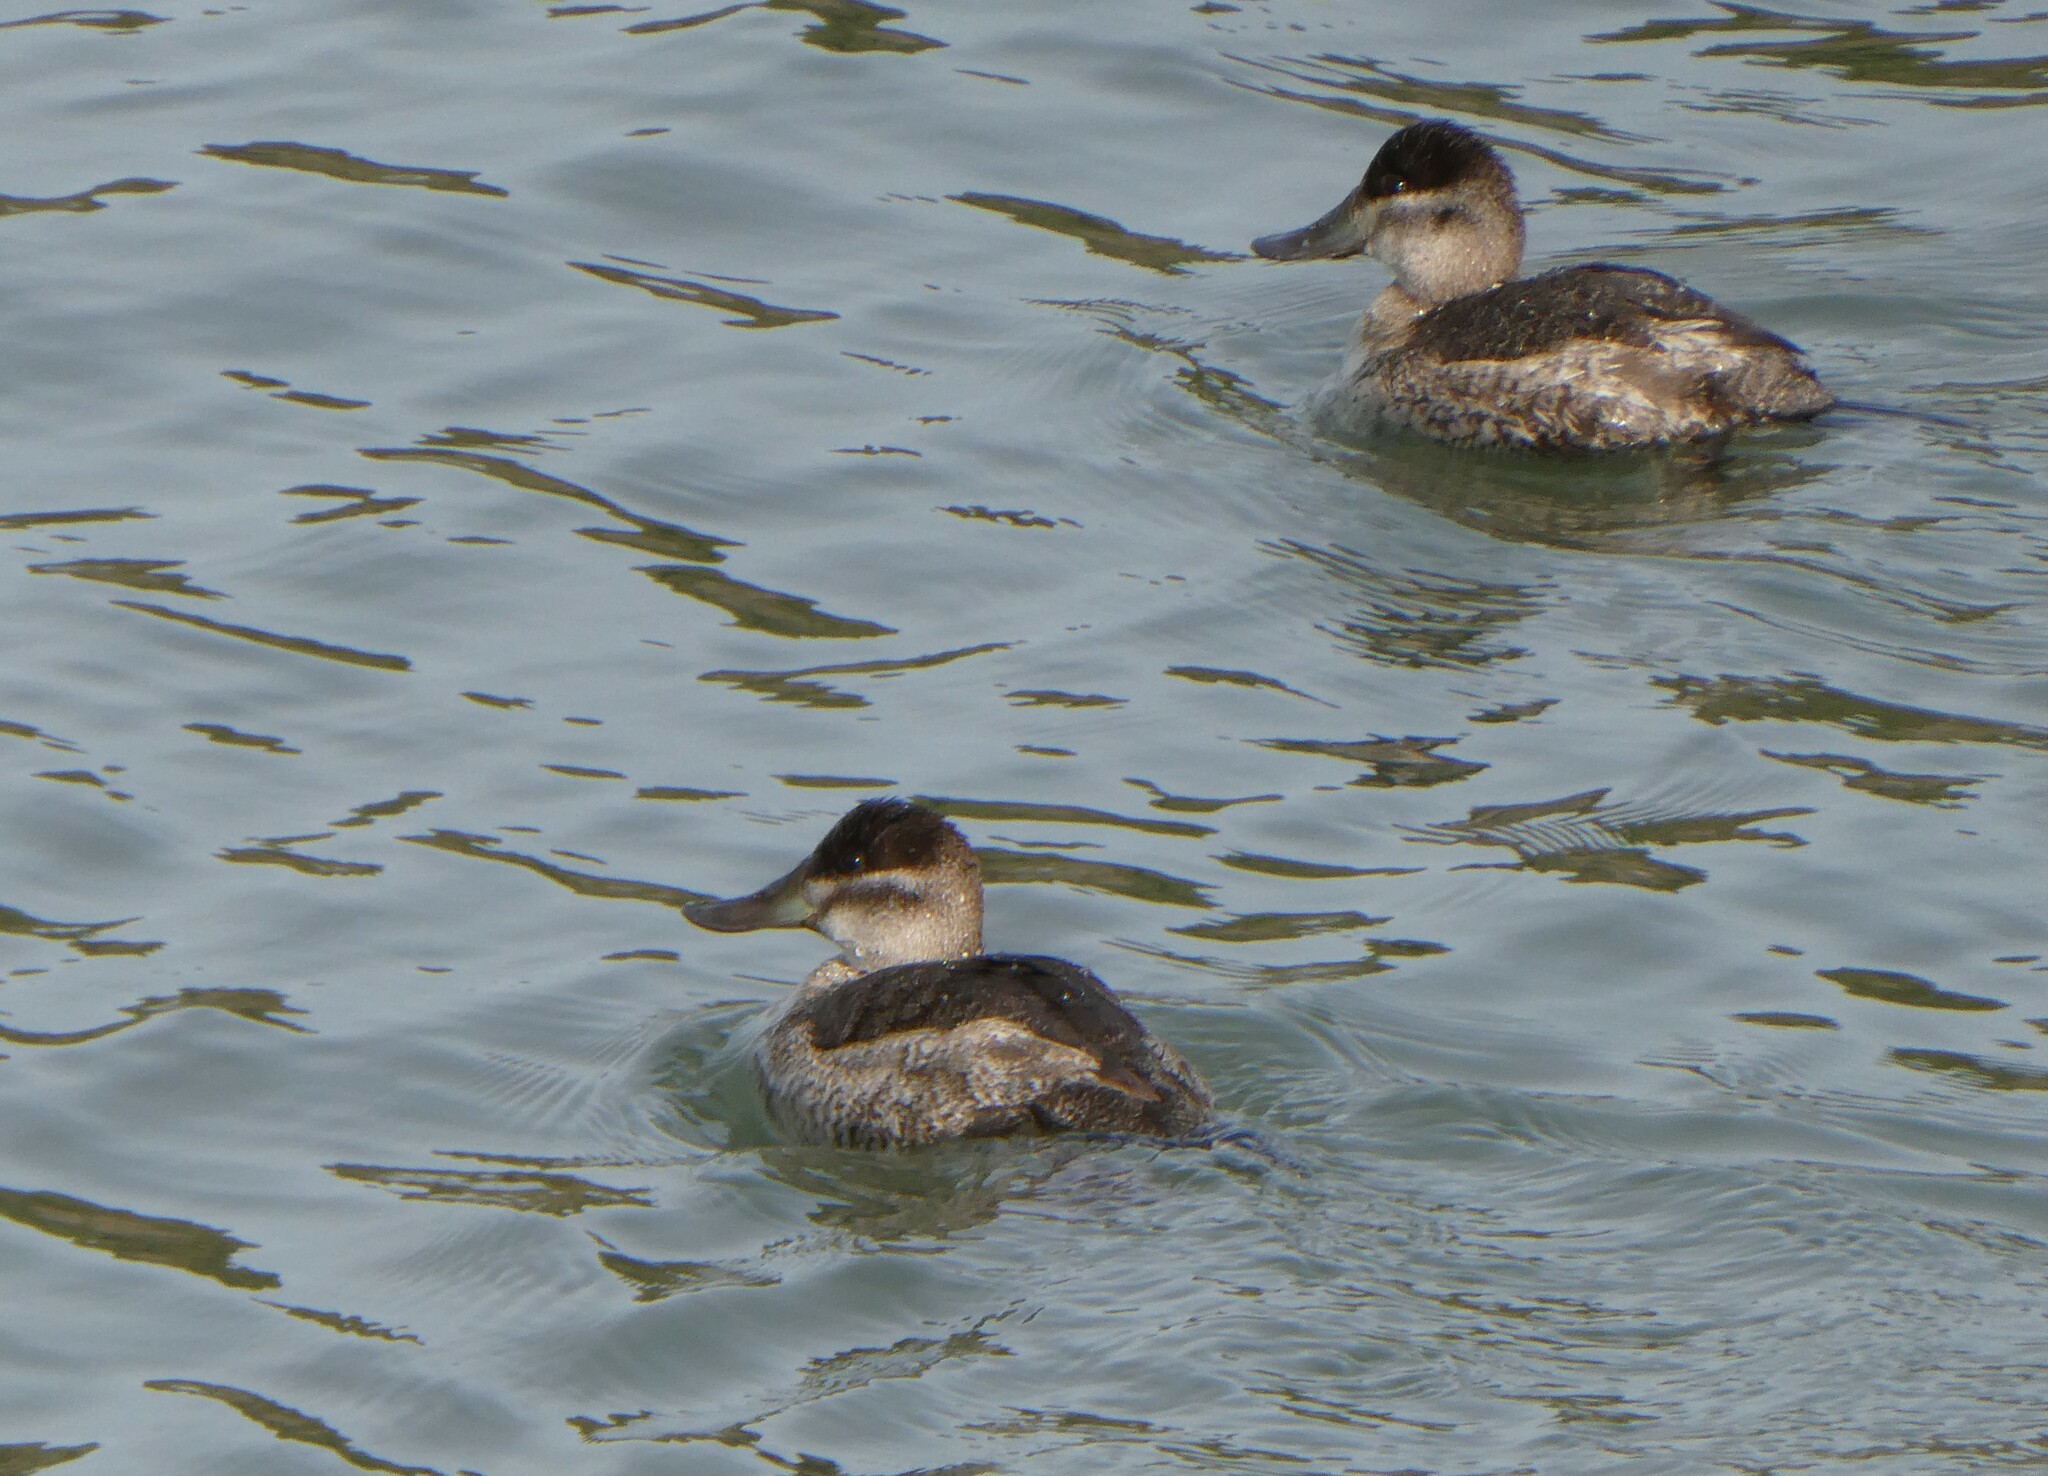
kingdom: Animalia
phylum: Chordata
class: Aves
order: Anseriformes
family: Anatidae
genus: Oxyura
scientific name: Oxyura jamaicensis
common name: Ruddy duck
